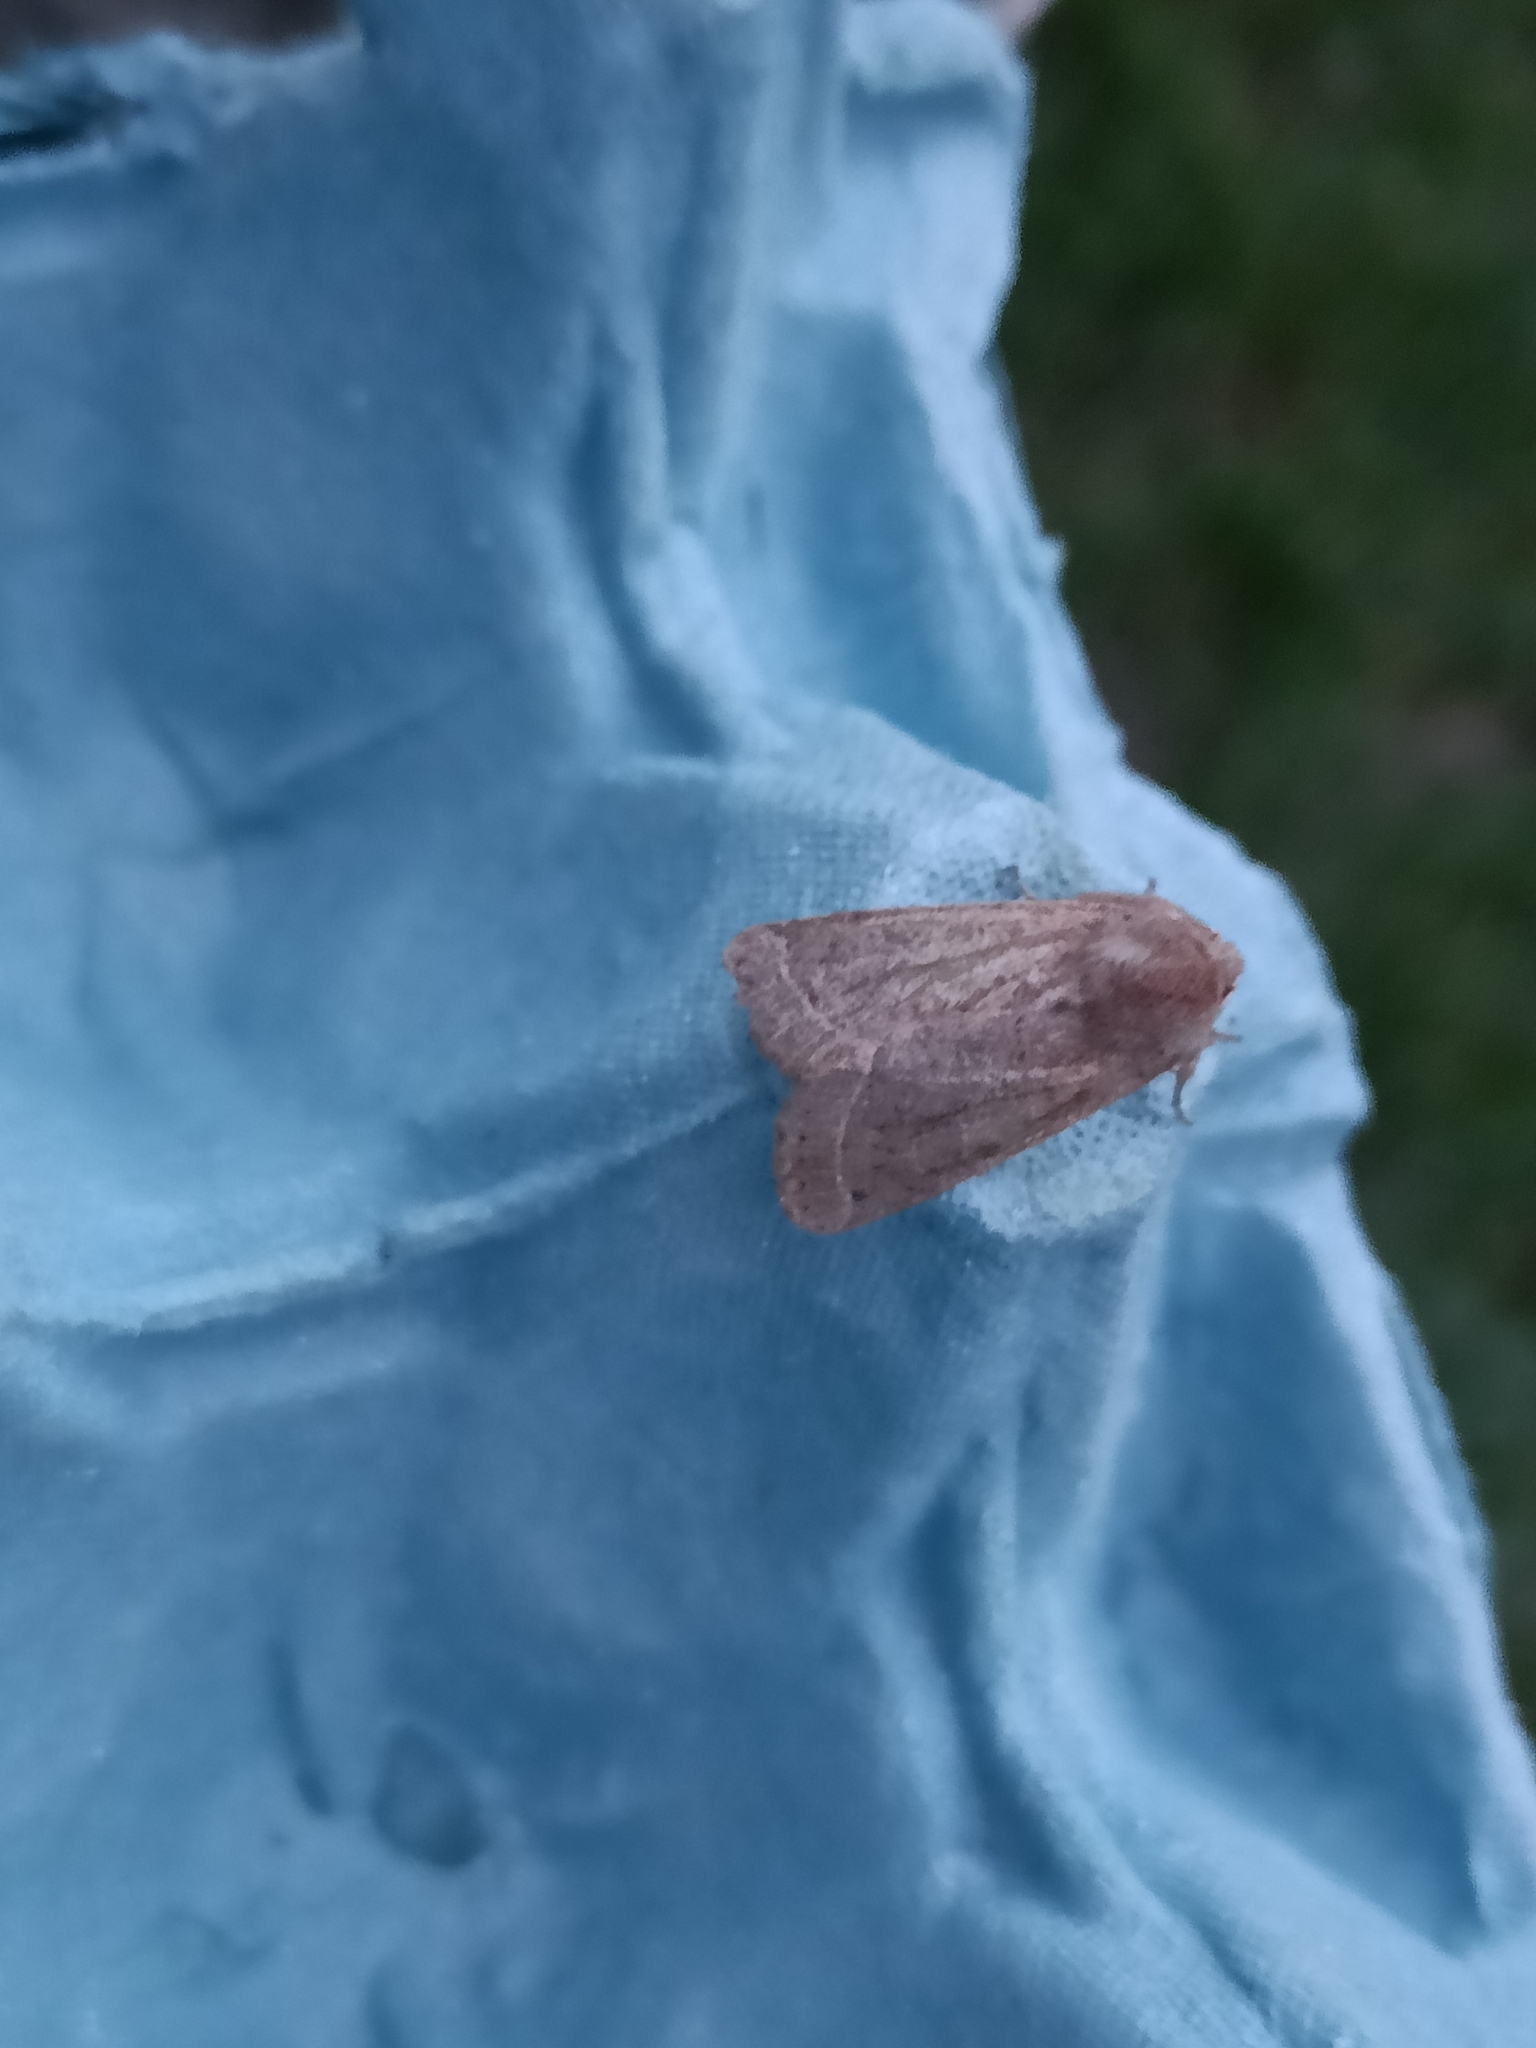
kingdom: Animalia
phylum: Arthropoda
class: Insecta
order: Lepidoptera
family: Noctuidae
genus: Orthosia
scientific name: Orthosia cerasi
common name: Common quaker
